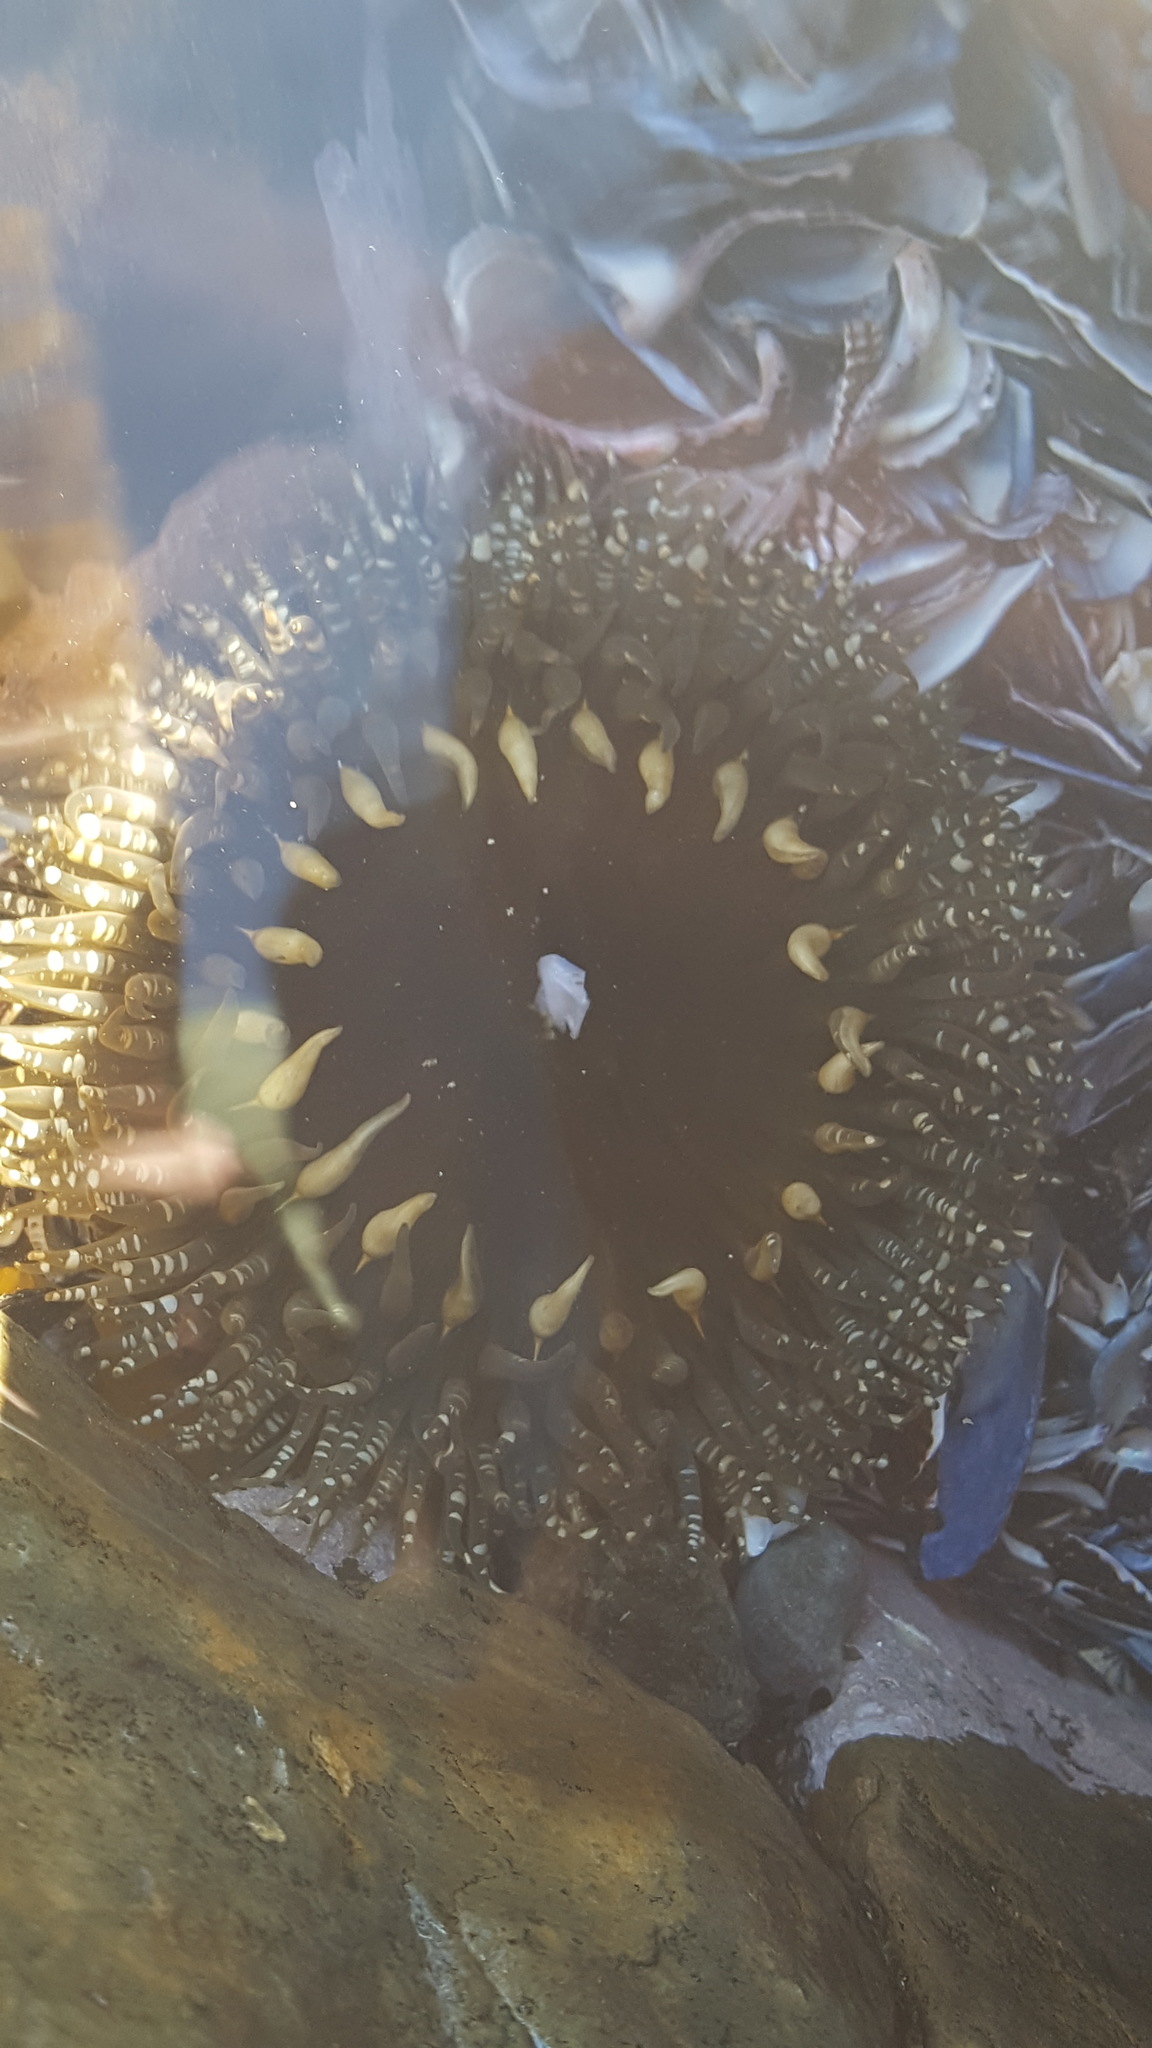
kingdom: Animalia
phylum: Cnidaria
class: Anthozoa
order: Actiniaria
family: Actiniidae
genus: Bunodactis
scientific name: Bunodactis reynaudi
